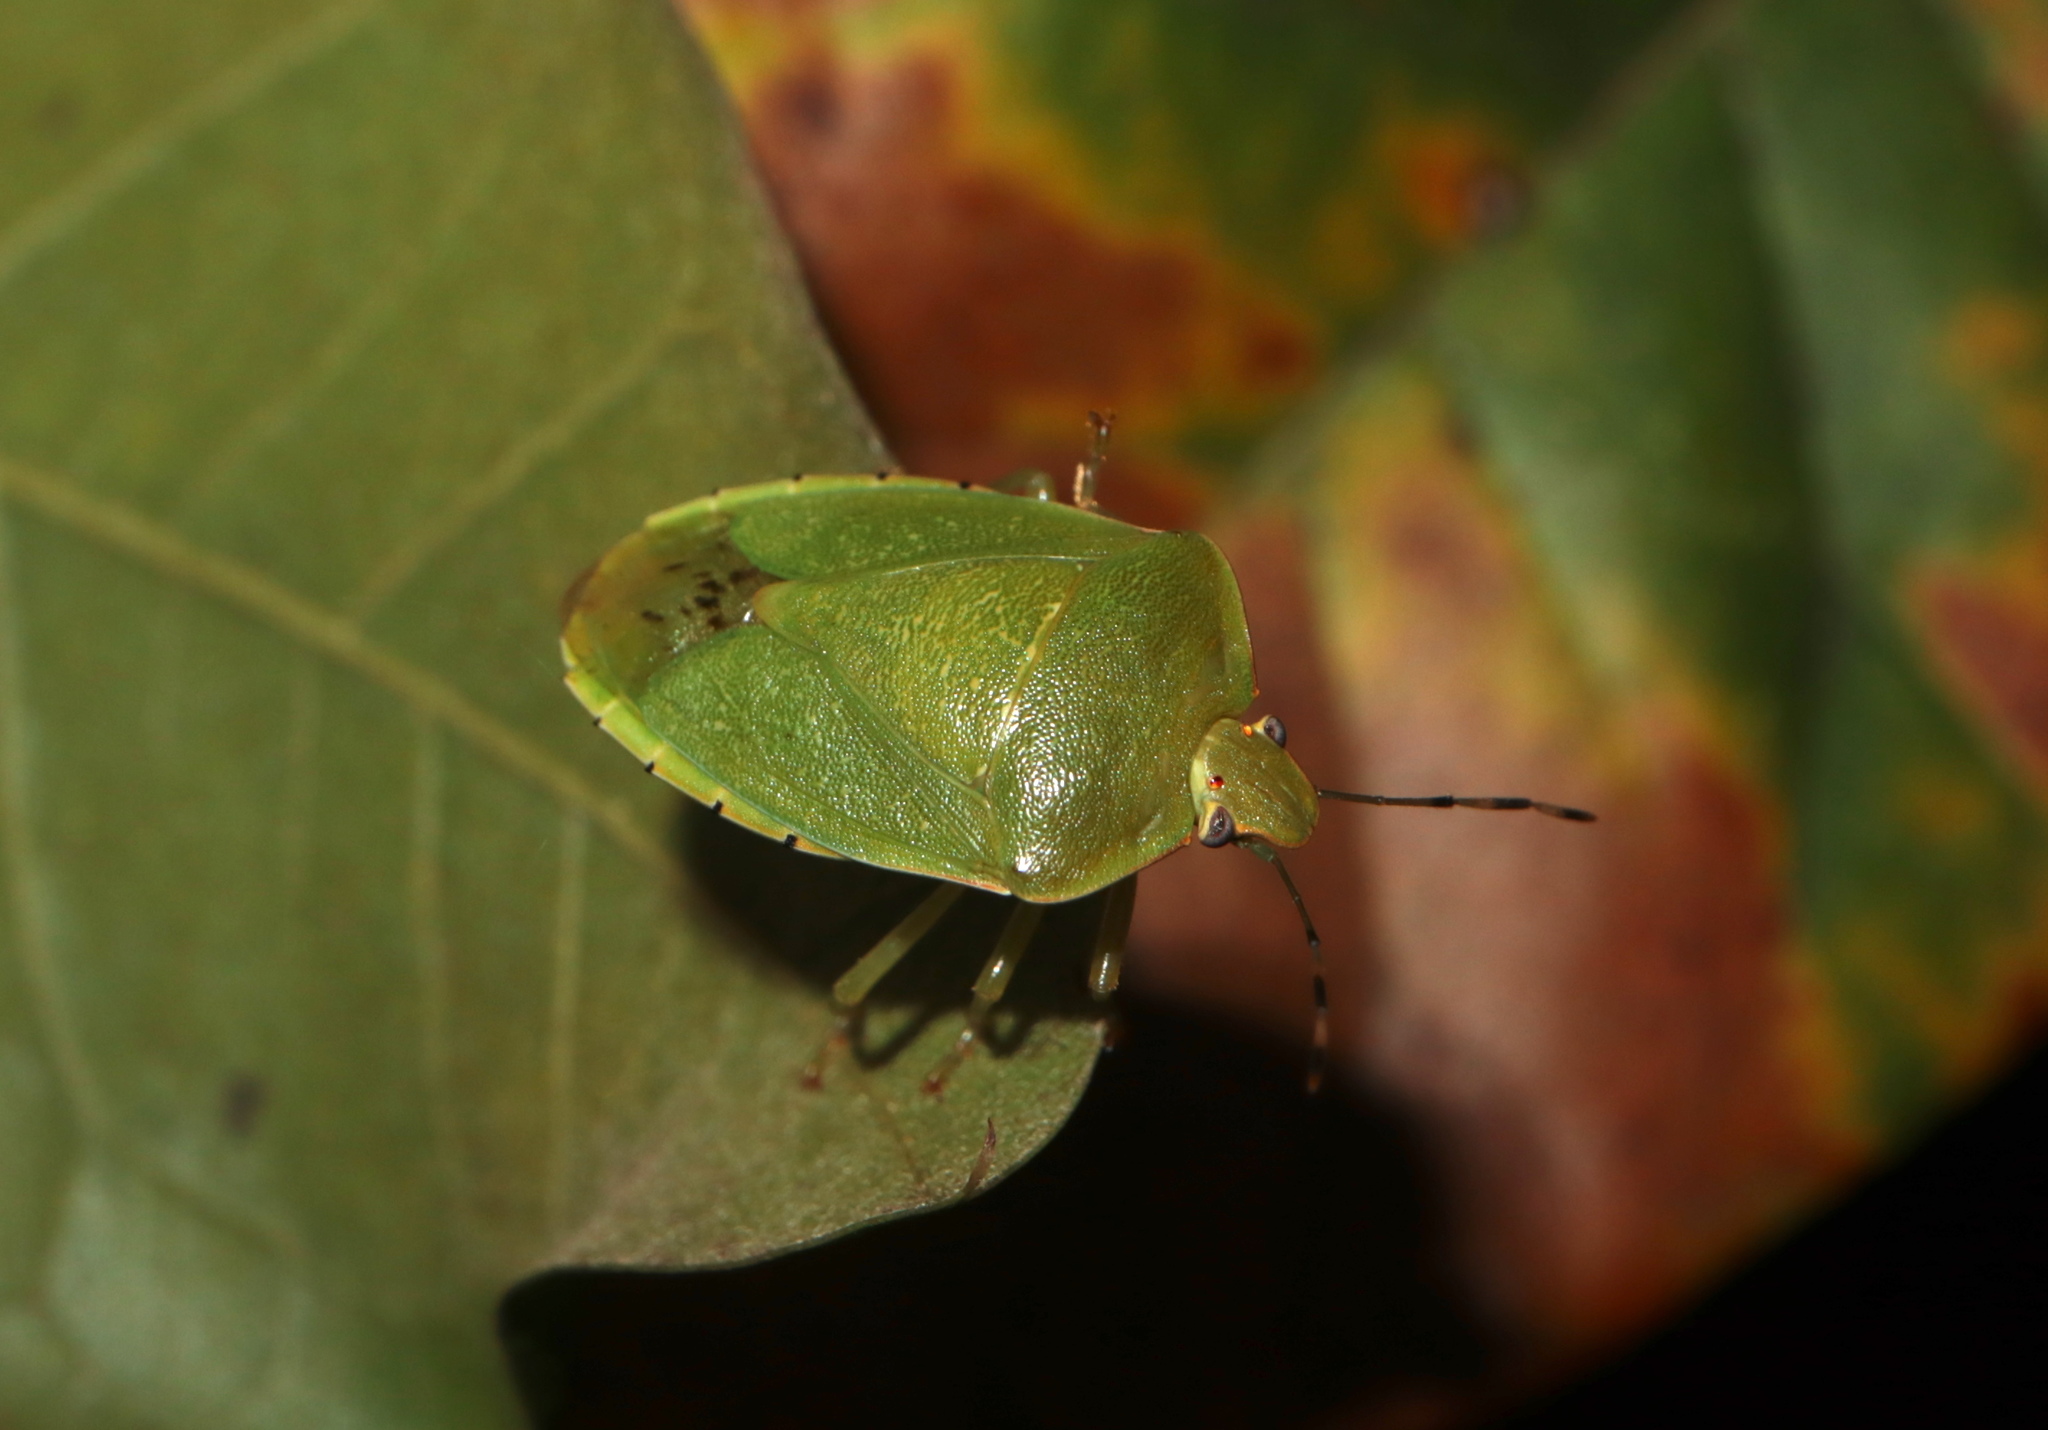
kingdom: Animalia
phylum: Arthropoda
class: Insecta
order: Hemiptera
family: Pentatomidae
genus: Chinavia
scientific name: Chinavia hilaris
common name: Green stink bug
